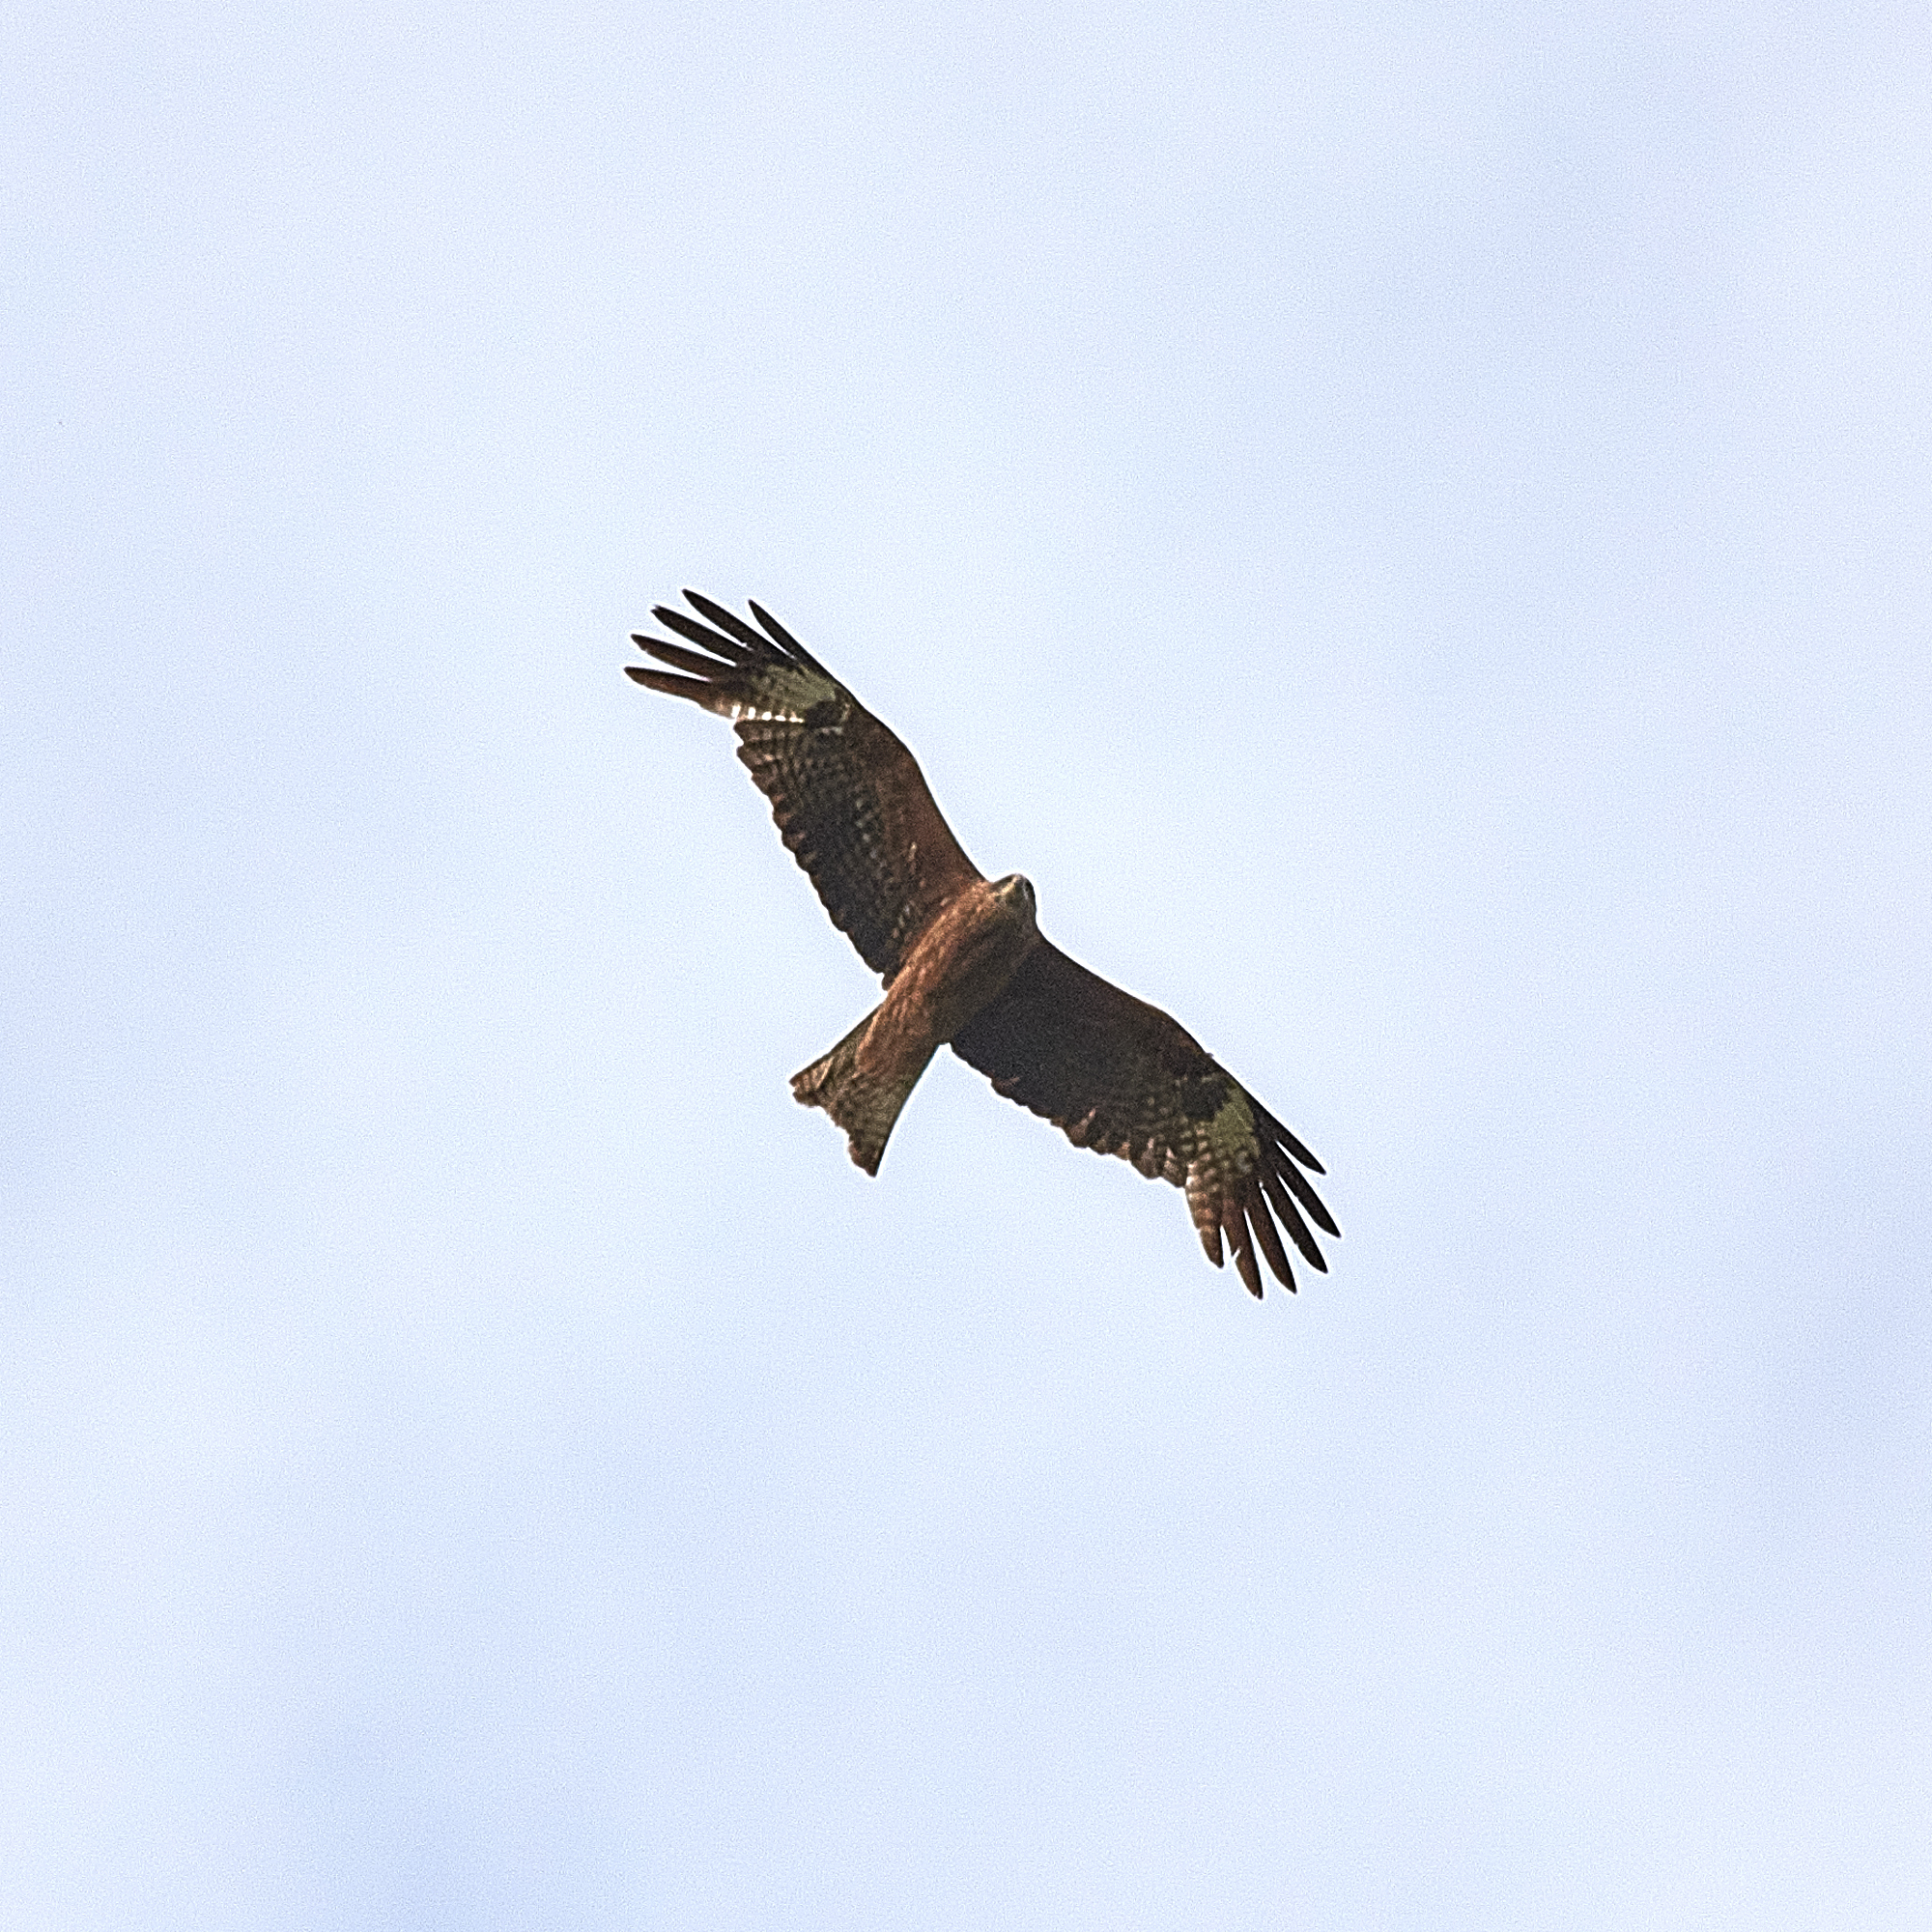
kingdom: Animalia
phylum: Chordata
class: Aves
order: Accipitriformes
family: Accipitridae
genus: Milvus
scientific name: Milvus migrans
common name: Black kite
